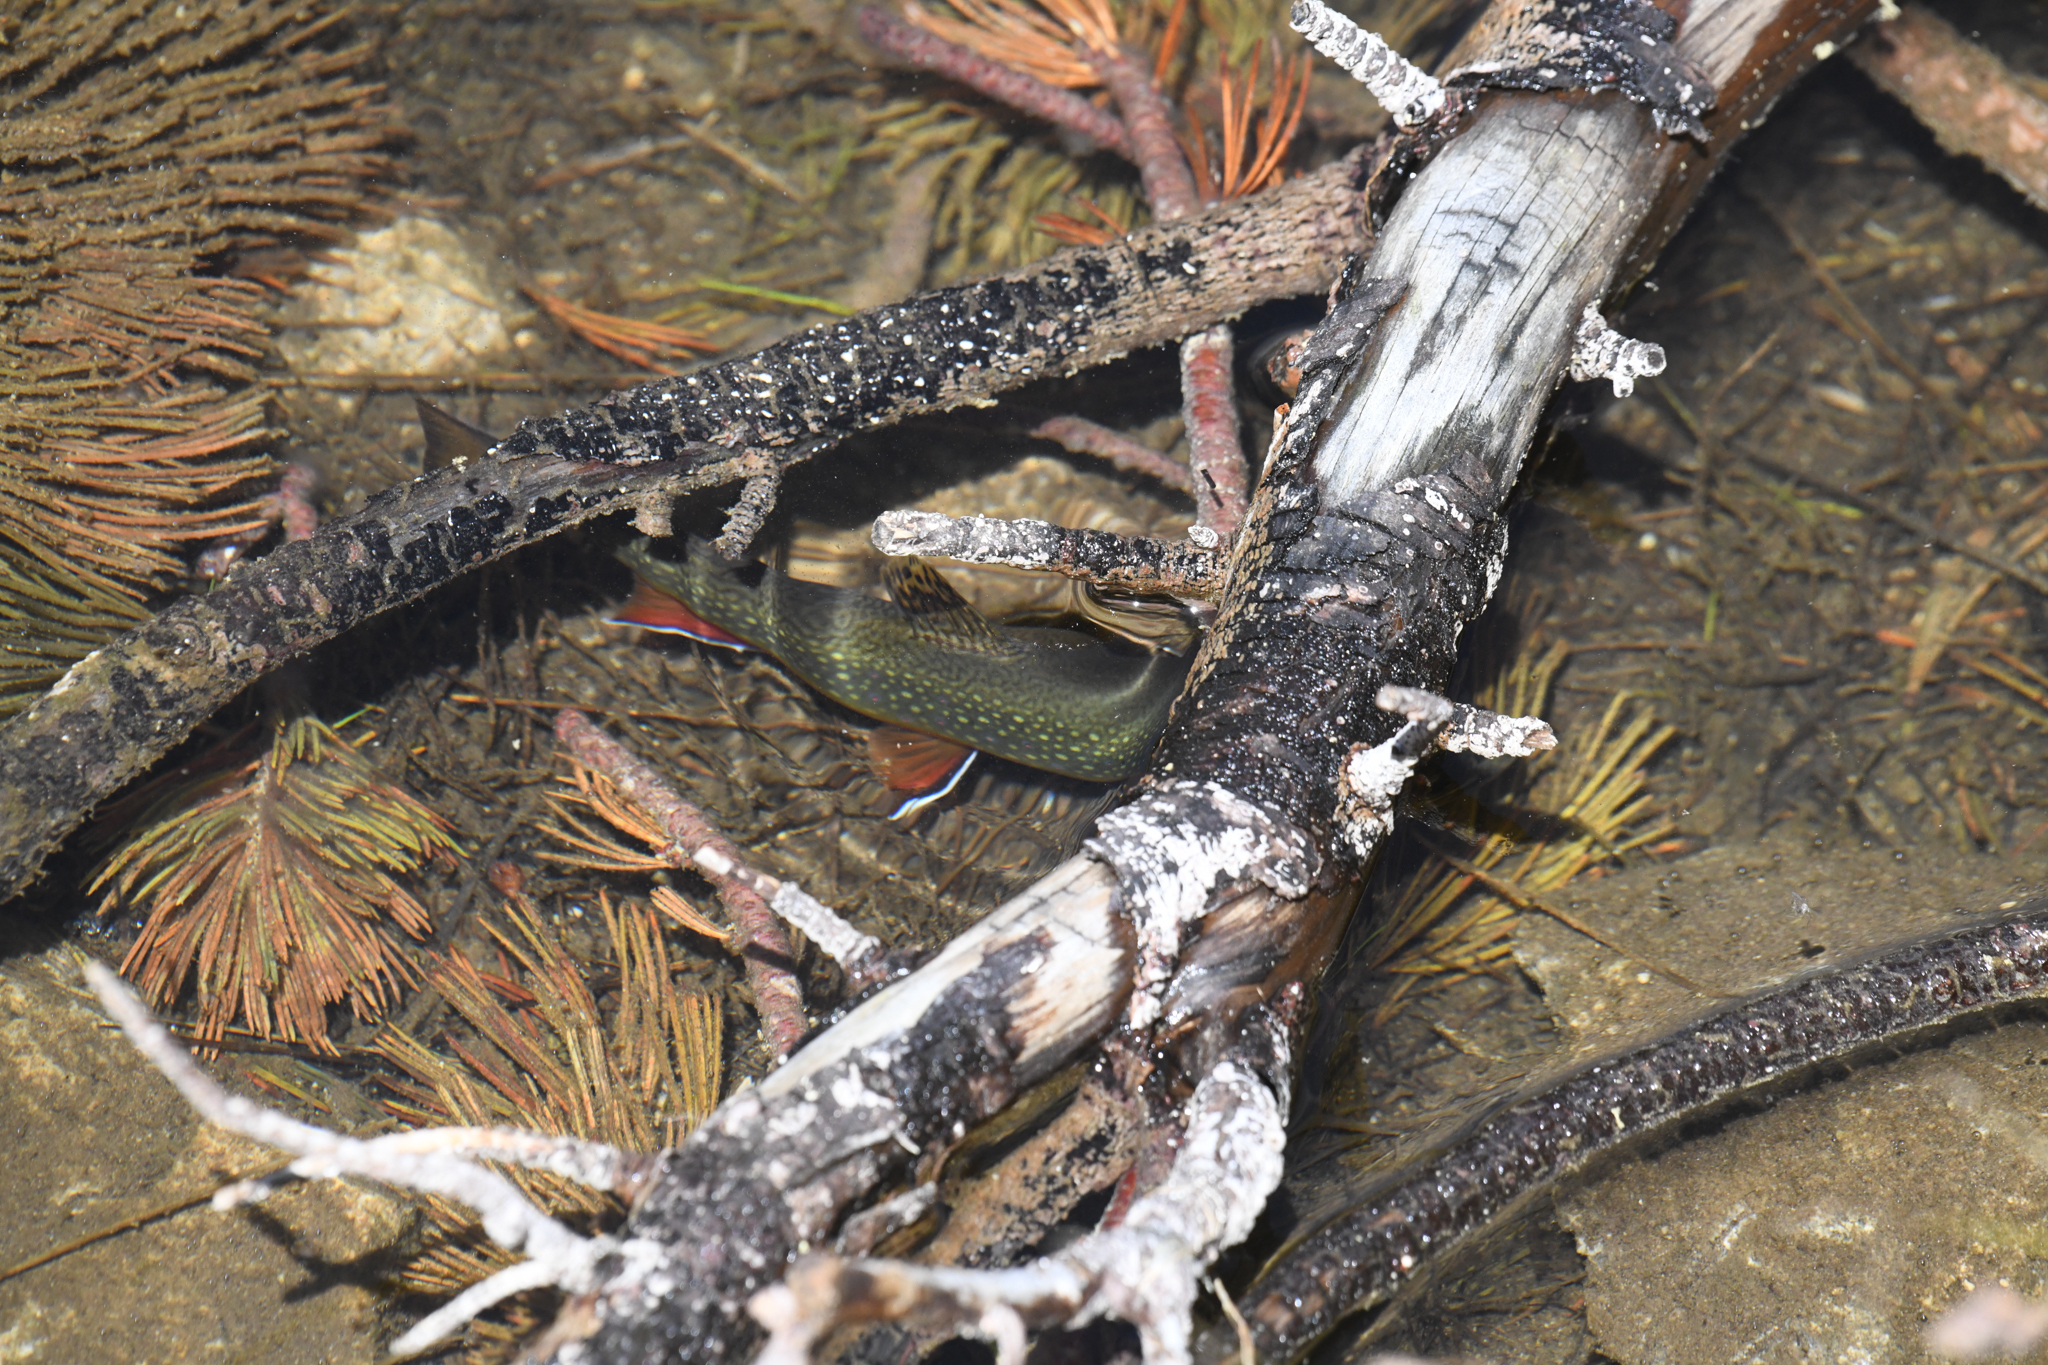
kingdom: Animalia
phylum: Chordata
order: Salmoniformes
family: Salmonidae
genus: Salvelinus
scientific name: Salvelinus fontinalis
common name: Brook trout
